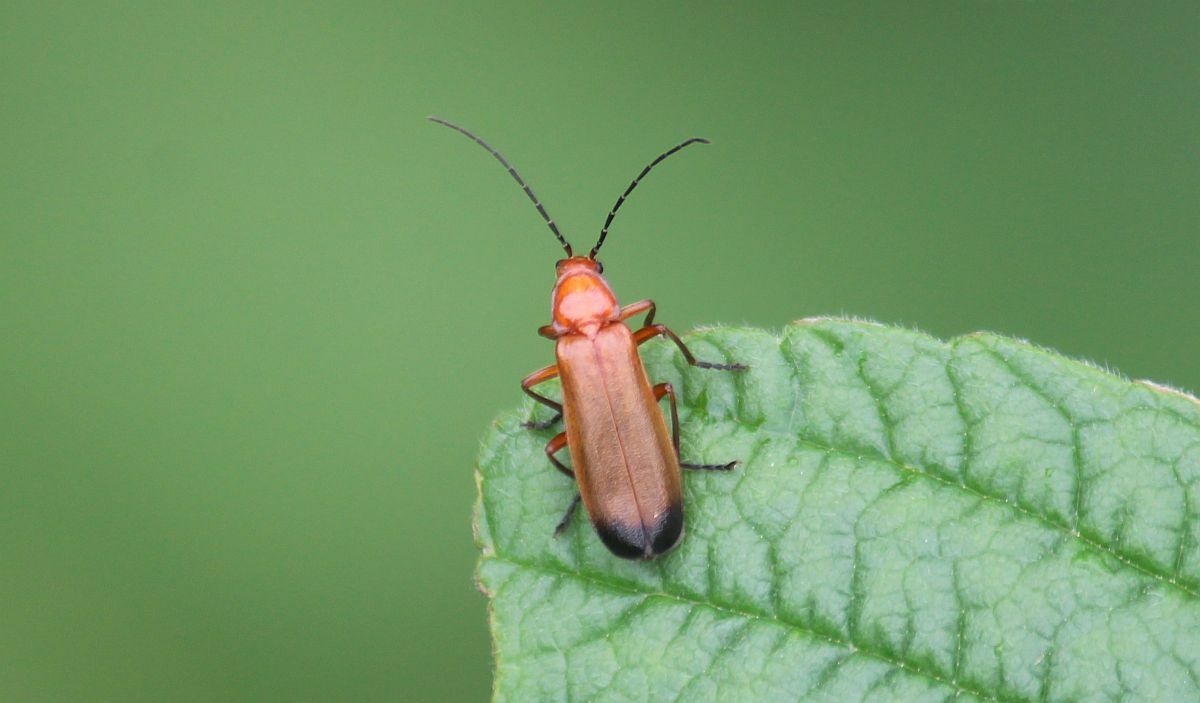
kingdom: Animalia
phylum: Arthropoda
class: Insecta
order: Coleoptera
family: Cantharidae
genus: Rhagonycha
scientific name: Rhagonycha fulva
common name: Common red soldier beetle
